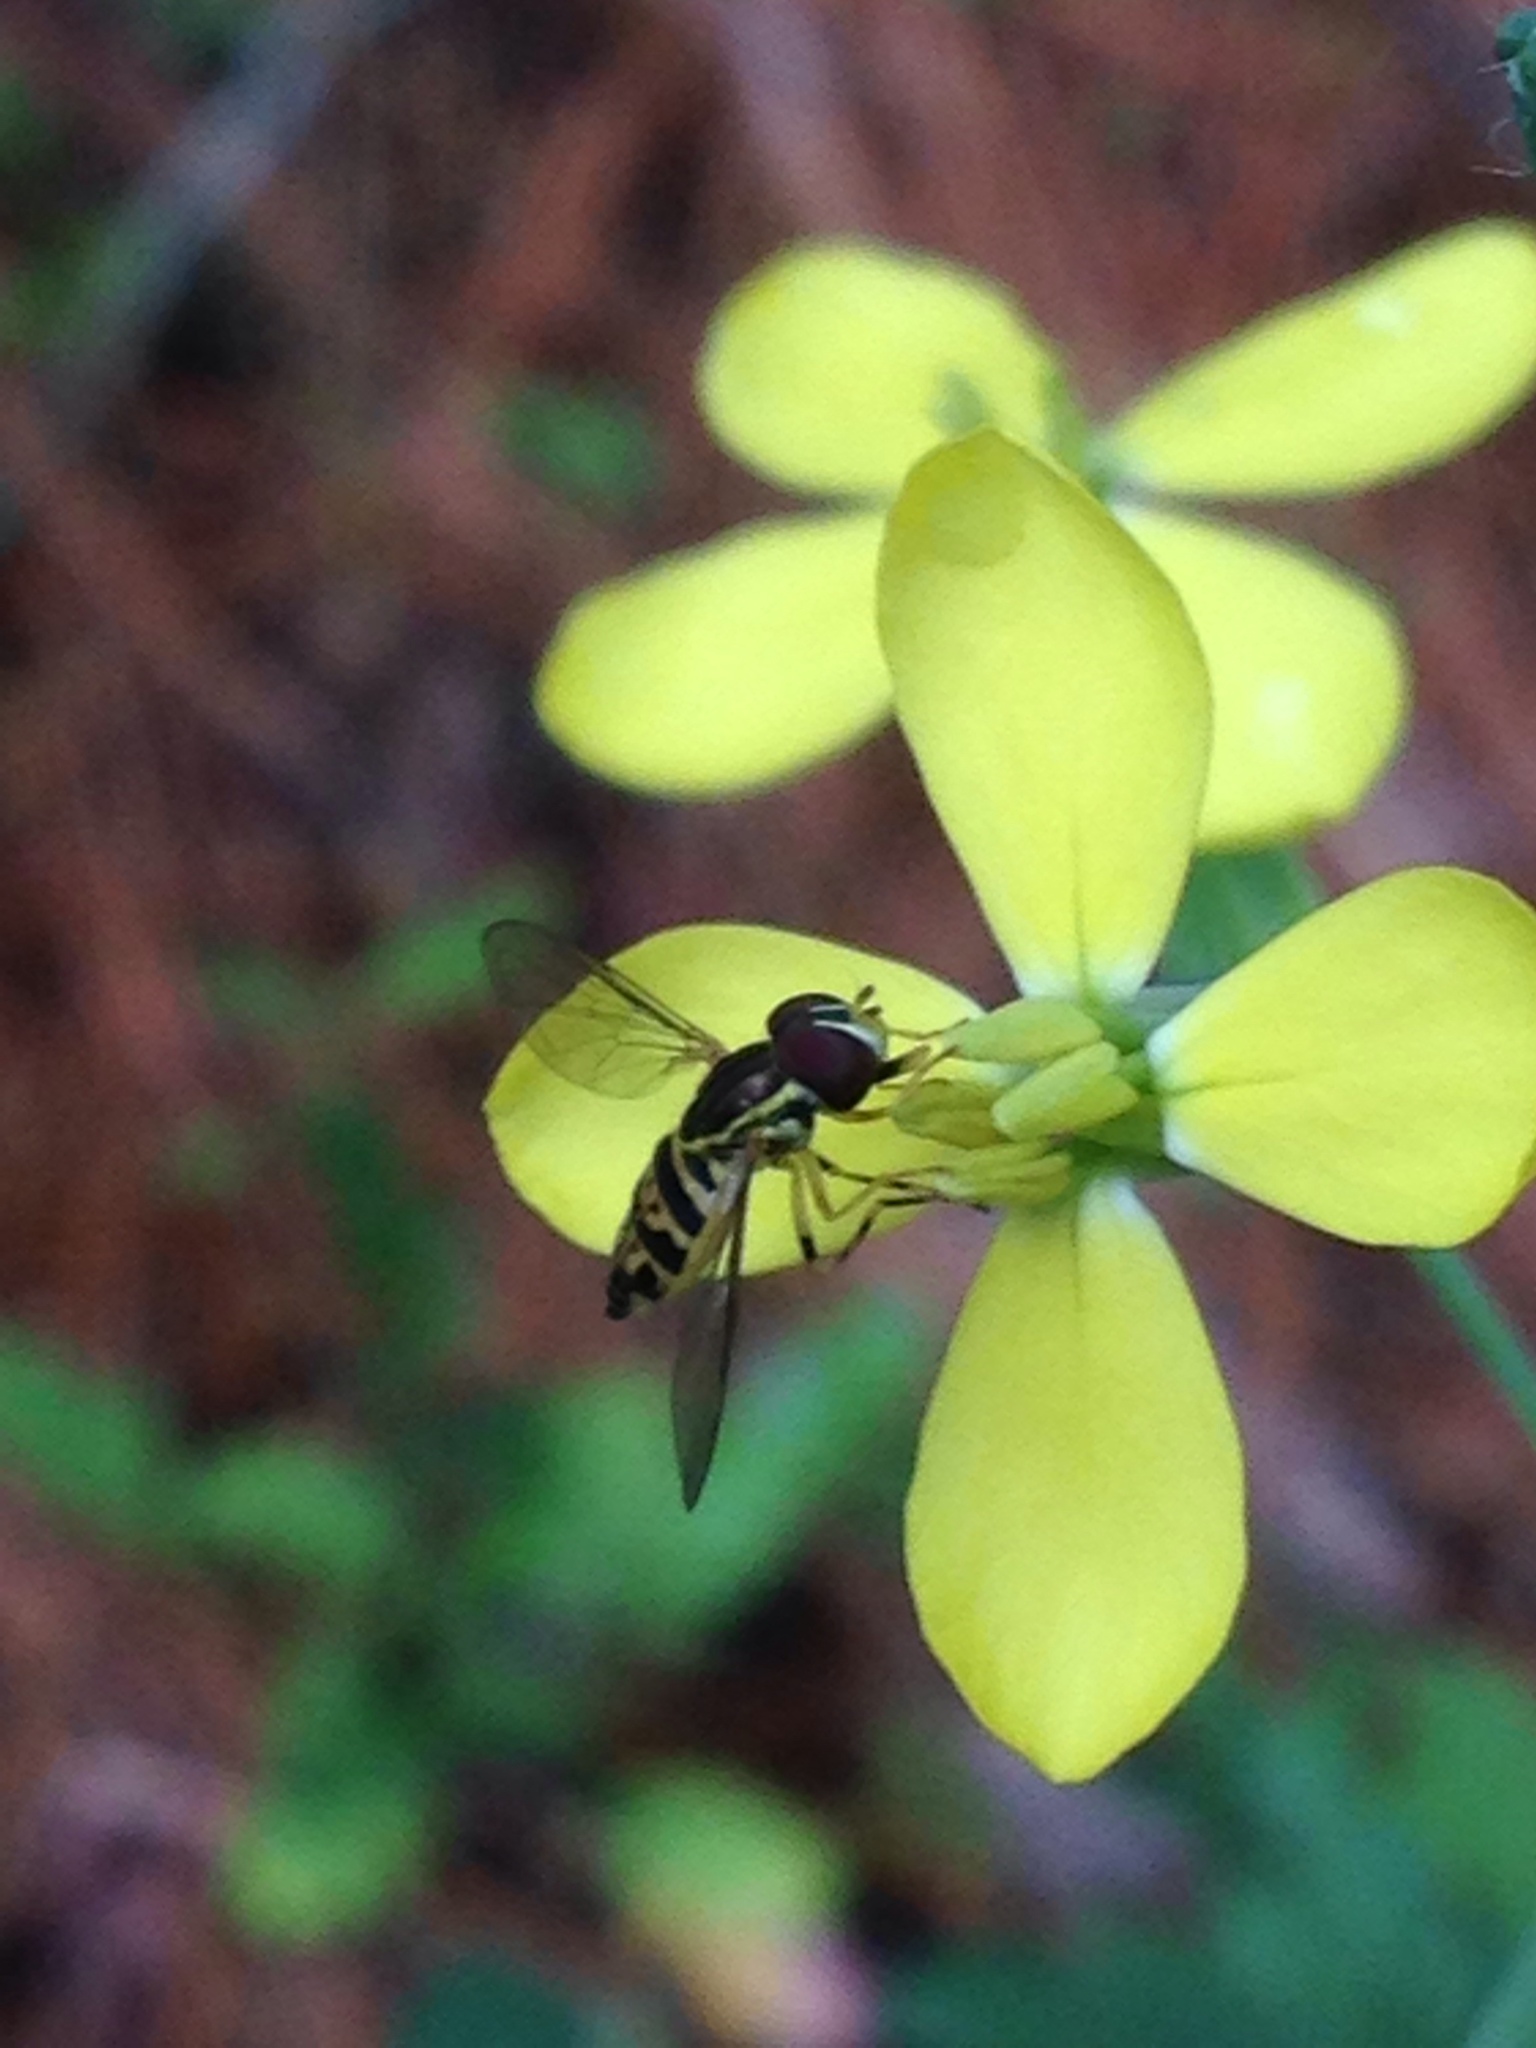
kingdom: Animalia
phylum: Arthropoda
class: Insecta
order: Diptera
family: Syrphidae
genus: Toxomerus
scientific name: Toxomerus geminatus
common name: Eastern calligrapher
